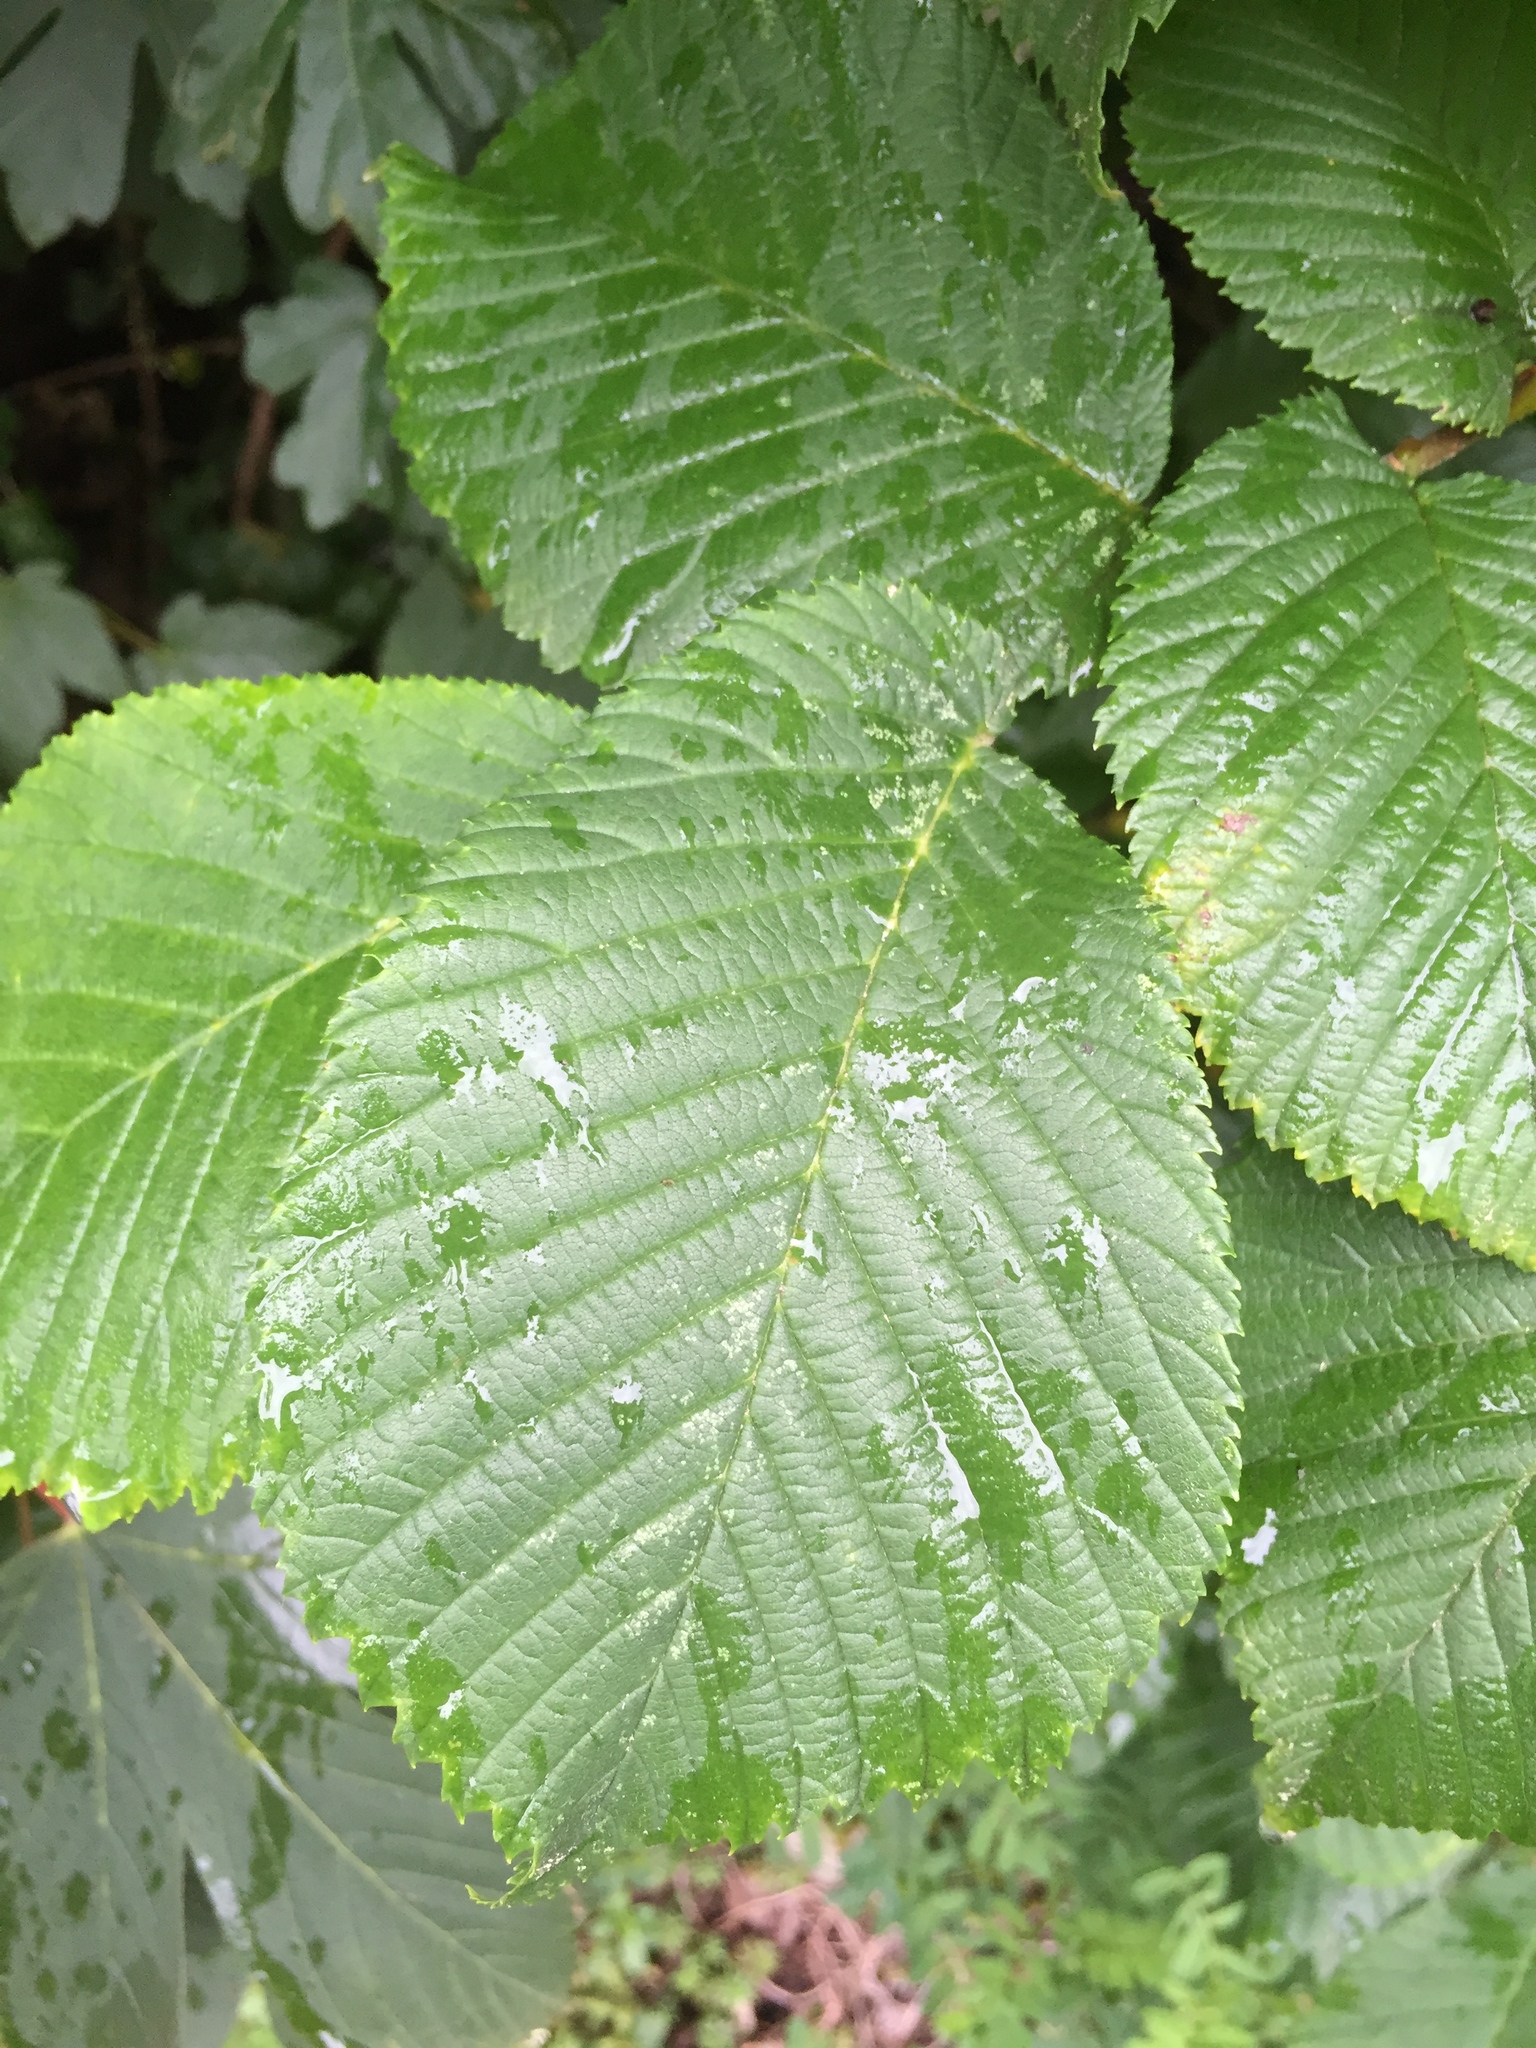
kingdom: Plantae
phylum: Tracheophyta
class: Magnoliopsida
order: Rosales
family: Ulmaceae
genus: Ulmus
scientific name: Ulmus glabra
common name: Wych elm
